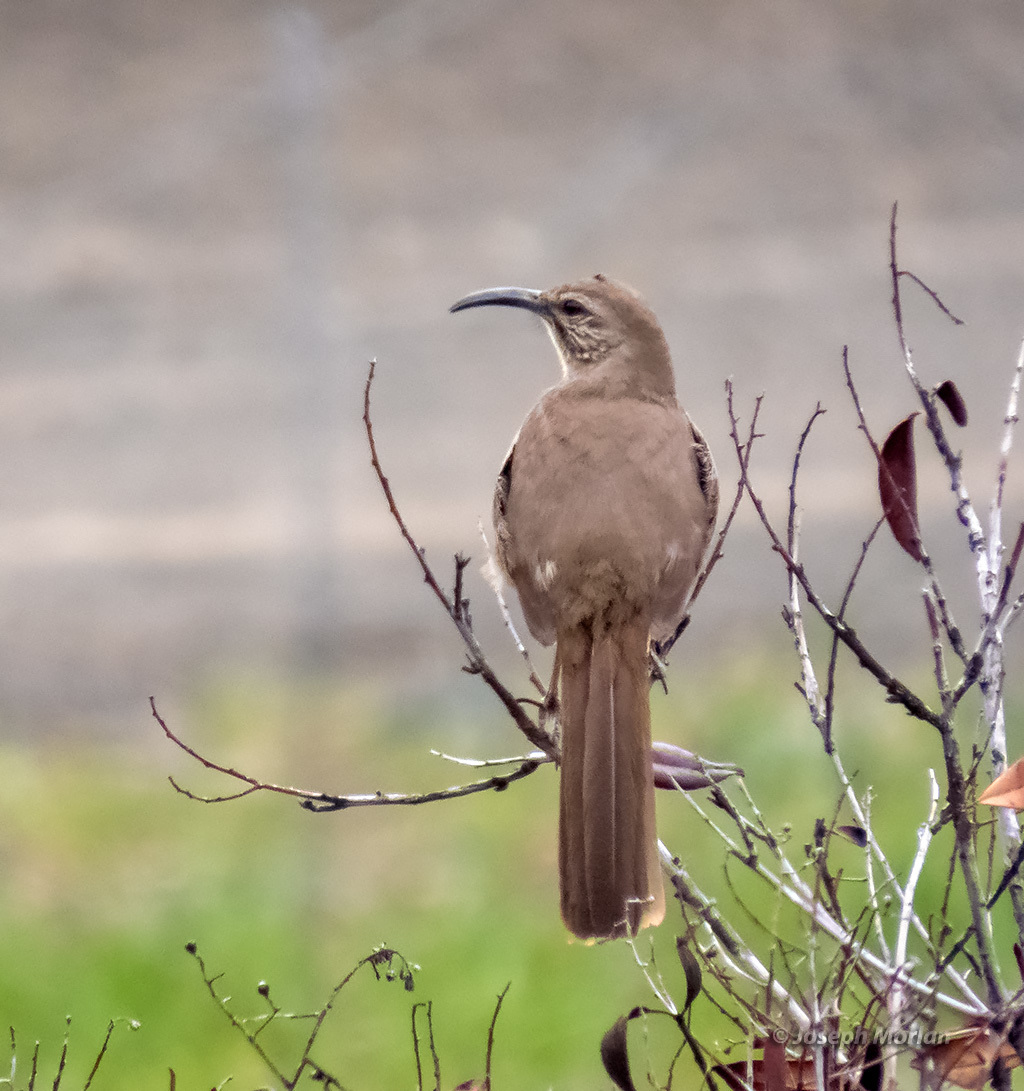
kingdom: Animalia
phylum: Chordata
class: Aves
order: Passeriformes
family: Mimidae
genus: Toxostoma
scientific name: Toxostoma redivivum
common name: California thrasher
